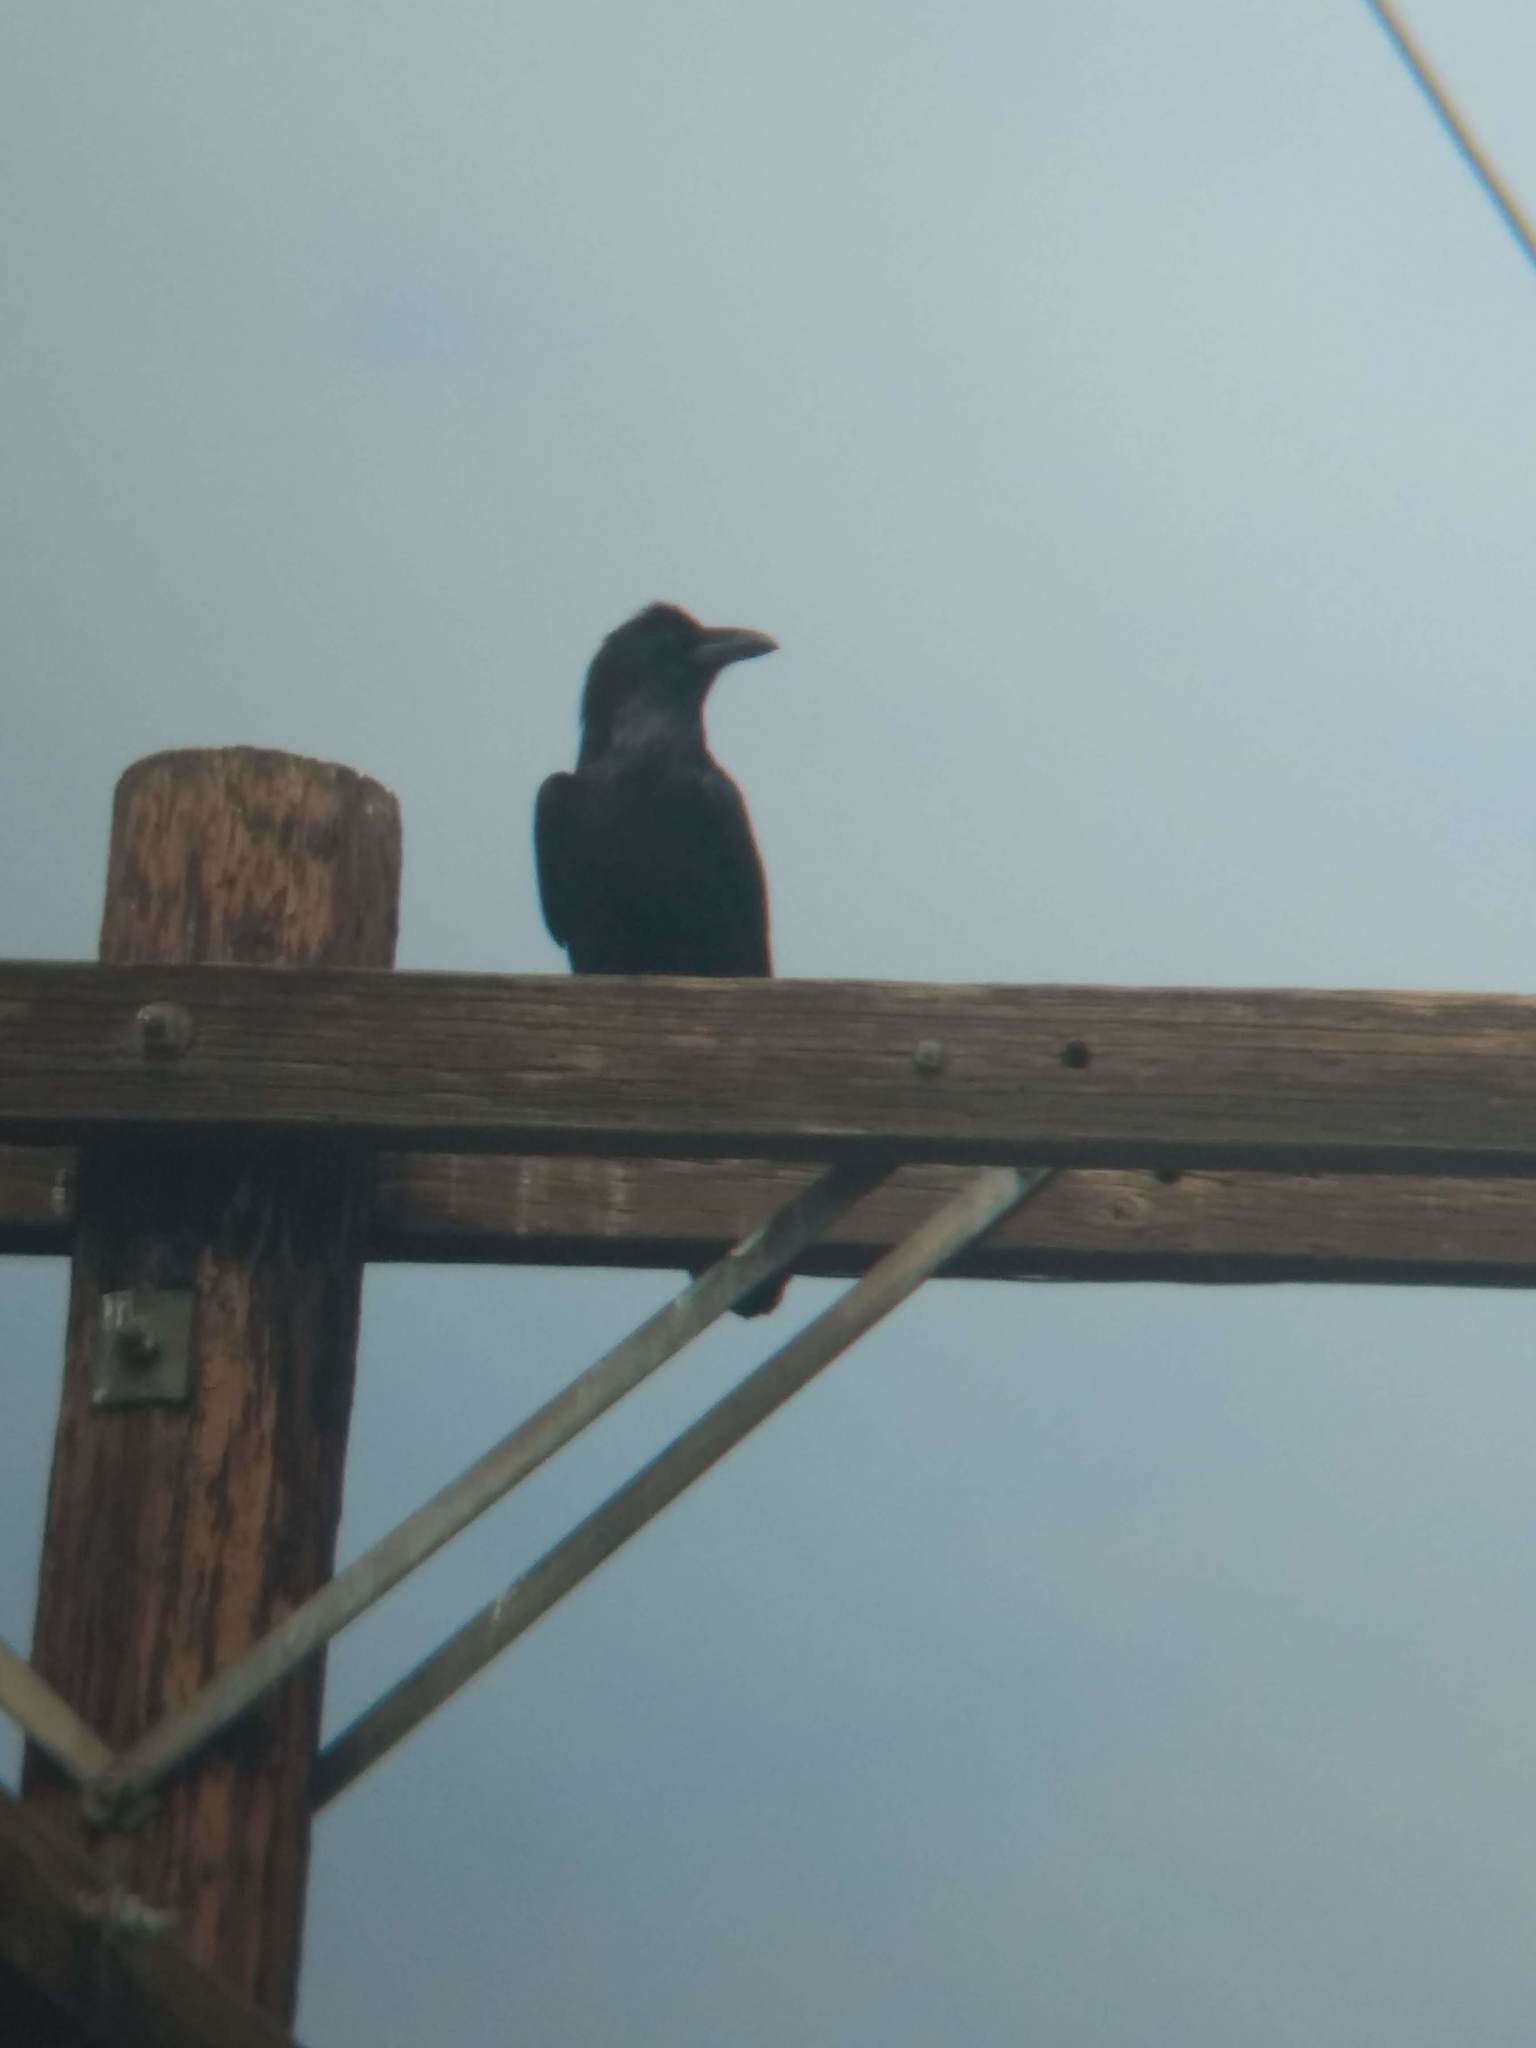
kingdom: Animalia
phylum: Chordata
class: Aves
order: Passeriformes
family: Corvidae
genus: Corvus
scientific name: Corvus corax
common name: Common raven
